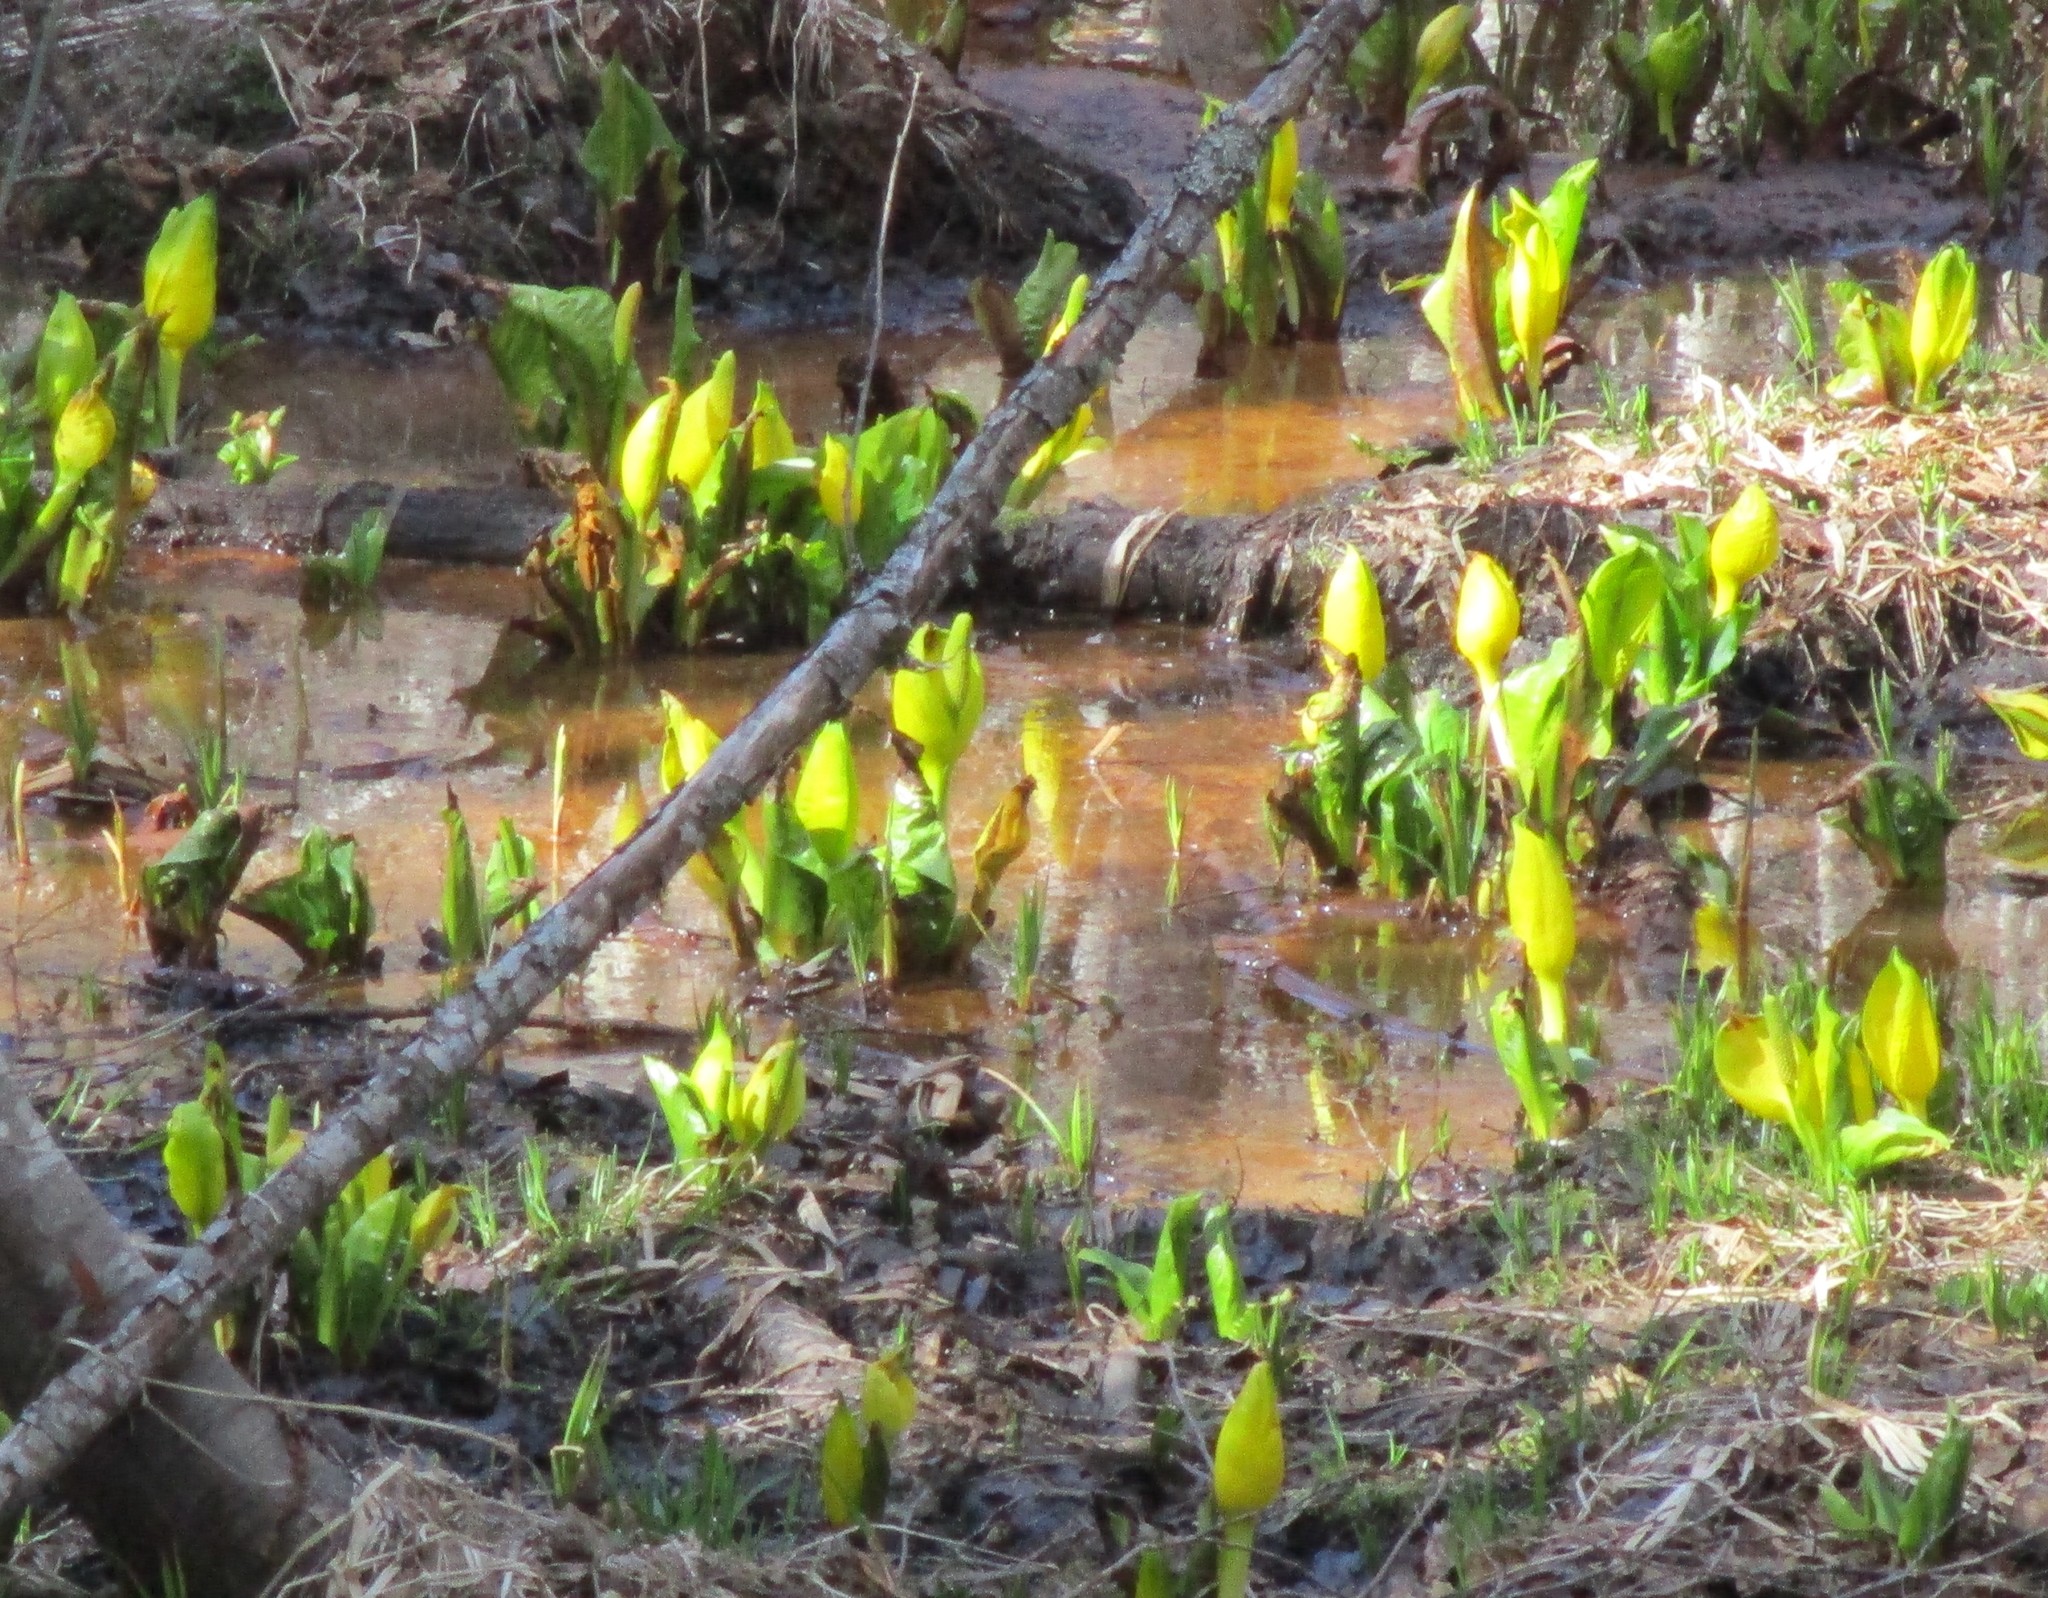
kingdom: Plantae
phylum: Tracheophyta
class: Liliopsida
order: Alismatales
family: Araceae
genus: Lysichiton
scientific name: Lysichiton americanus
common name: American skunk cabbage
